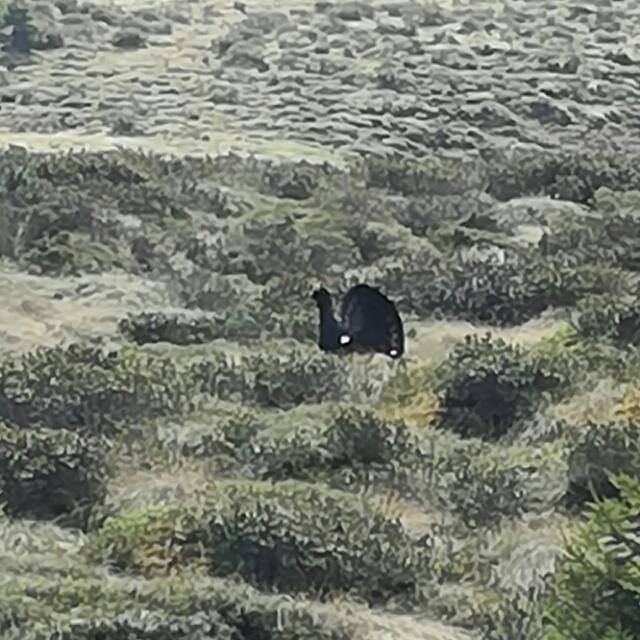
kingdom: Animalia
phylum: Chordata
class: Aves
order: Galliformes
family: Phasianidae
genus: Tetrao
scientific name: Tetrao urogallus
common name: Western capercaillie
